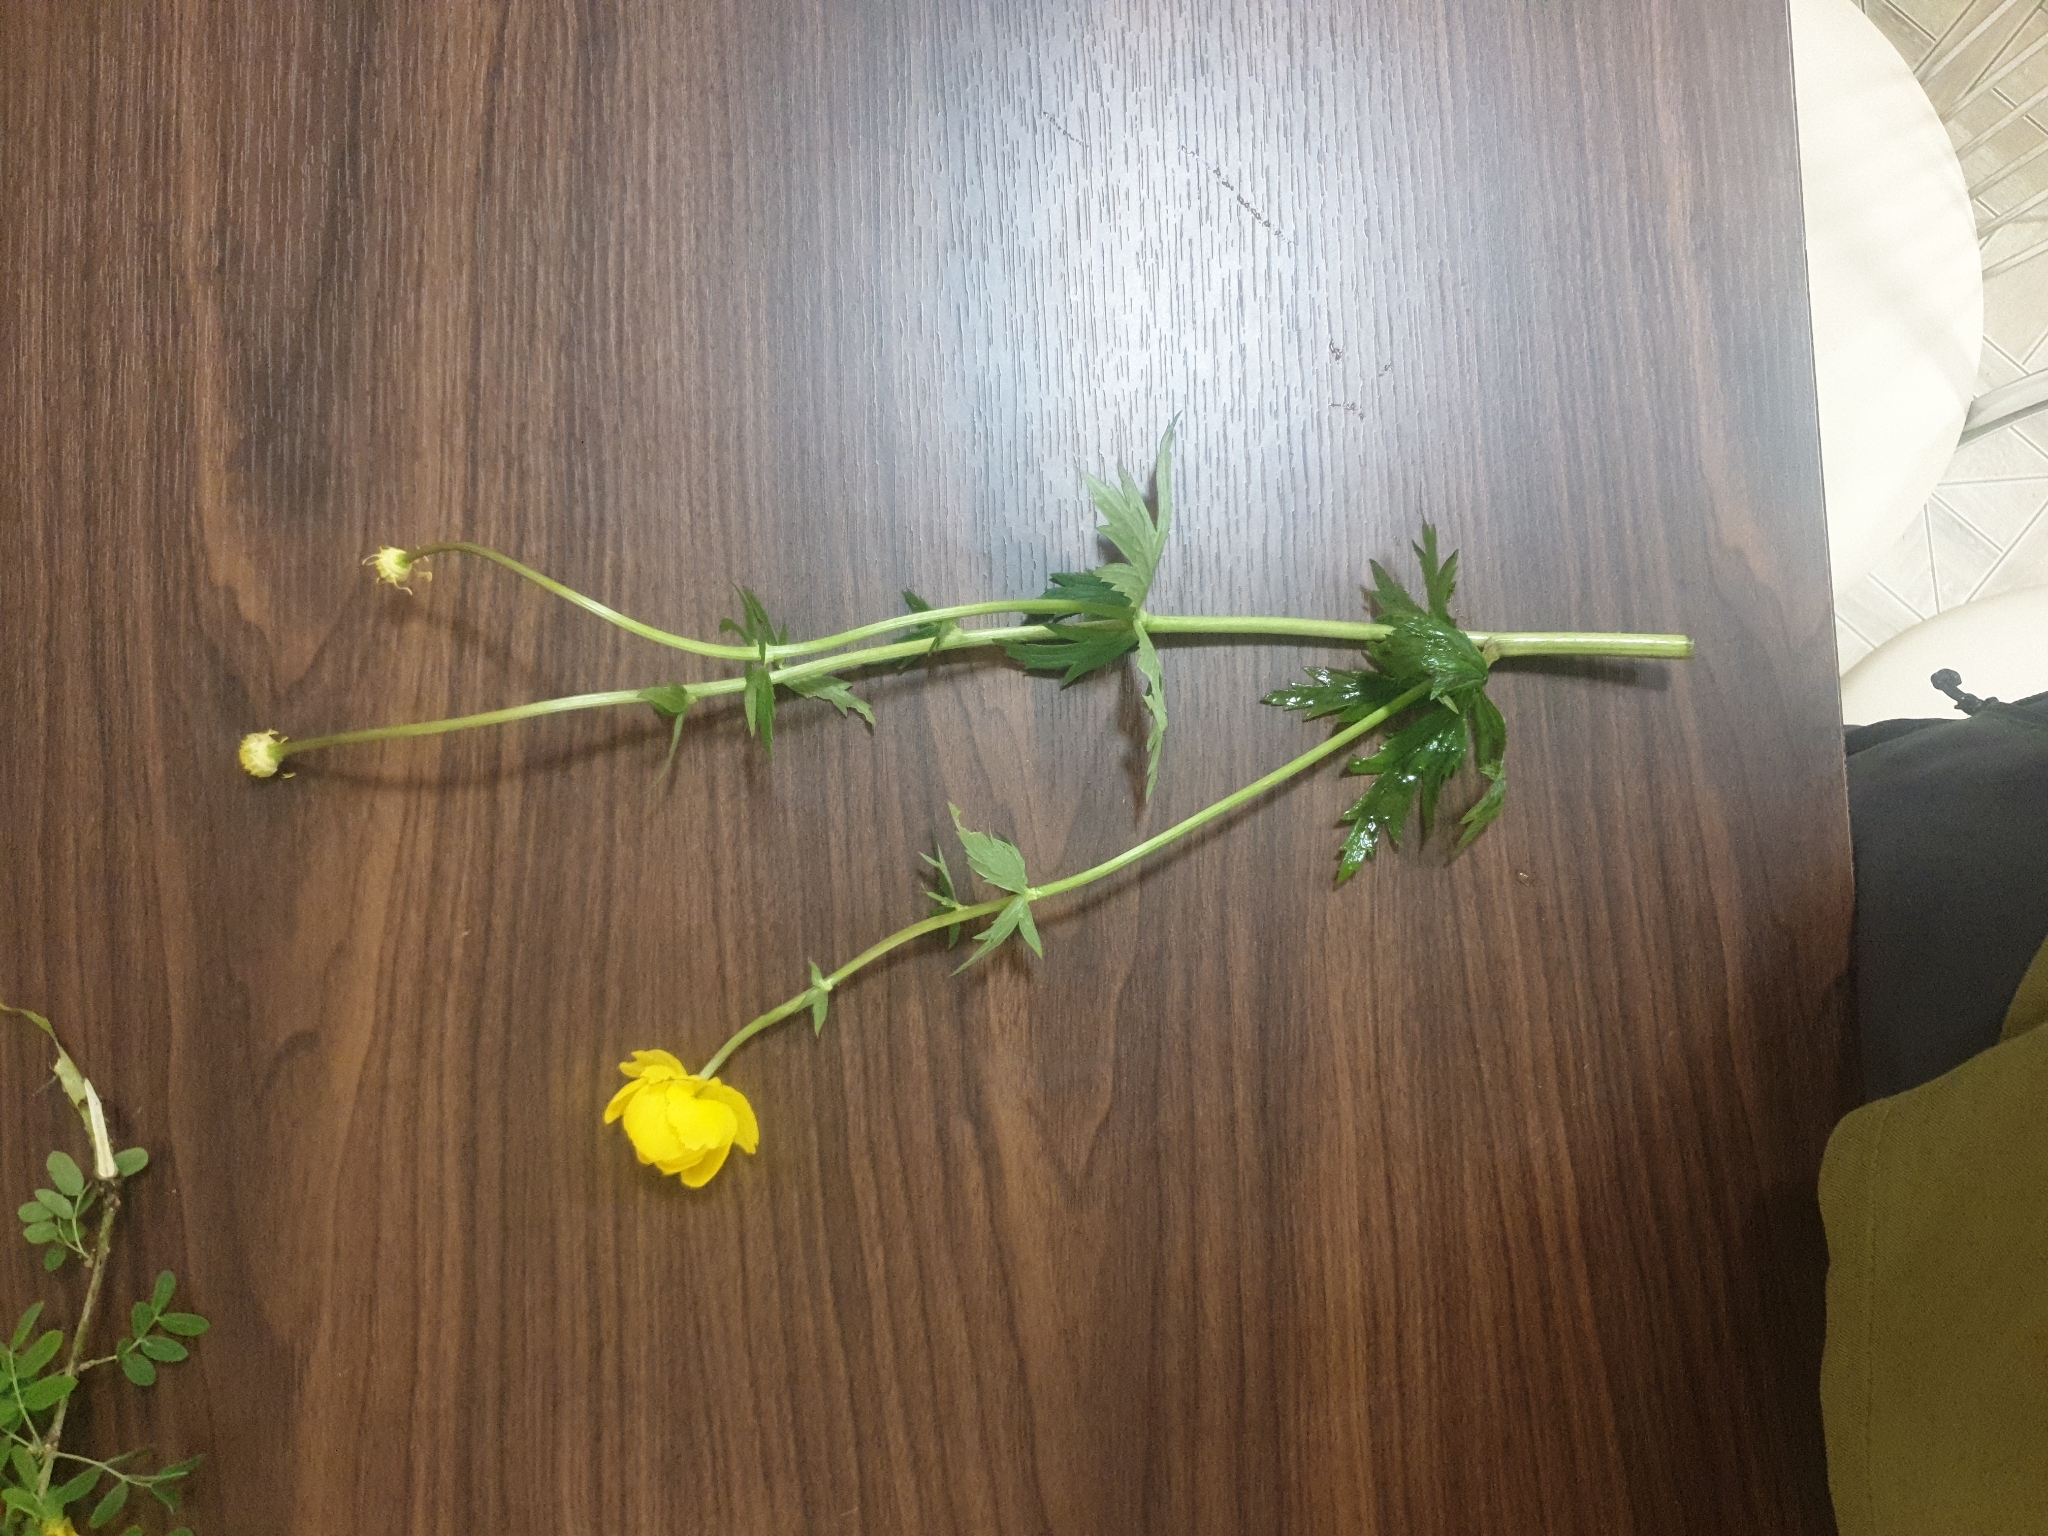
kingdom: Plantae
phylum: Tracheophyta
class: Magnoliopsida
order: Ranunculales
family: Ranunculaceae
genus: Trollius
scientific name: Trollius europaeus
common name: European globeflower
